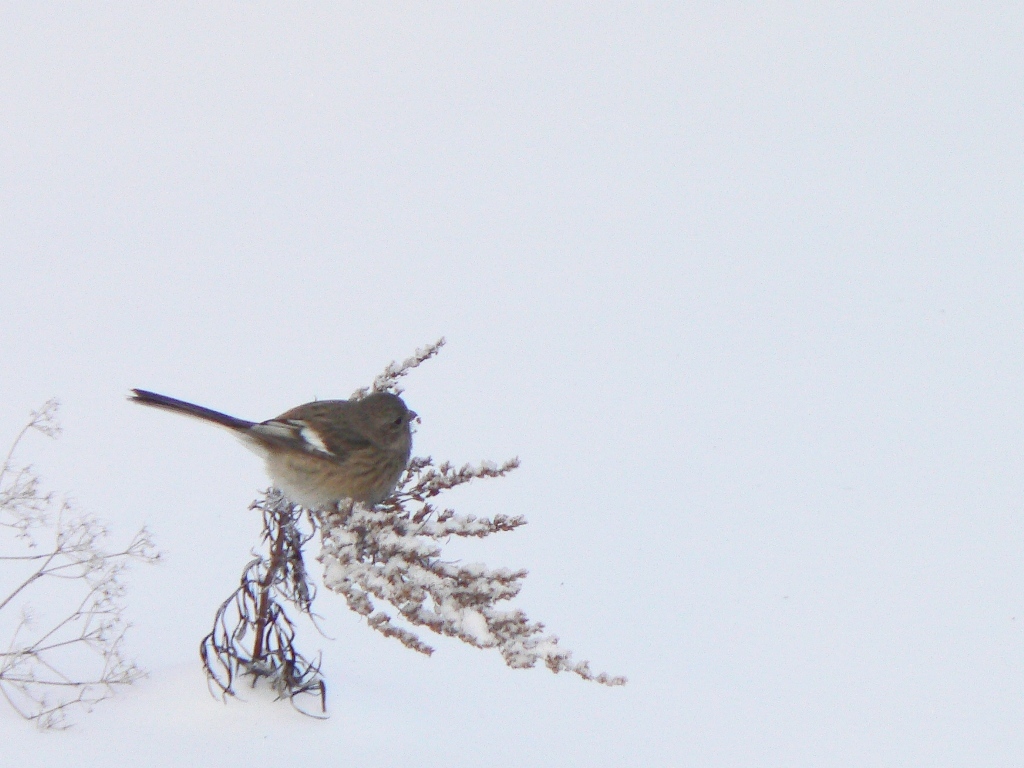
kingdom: Animalia
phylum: Chordata
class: Aves
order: Passeriformes
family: Fringillidae
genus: Carpodacus
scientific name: Carpodacus sibiricus
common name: Long-tailed rosefinch
